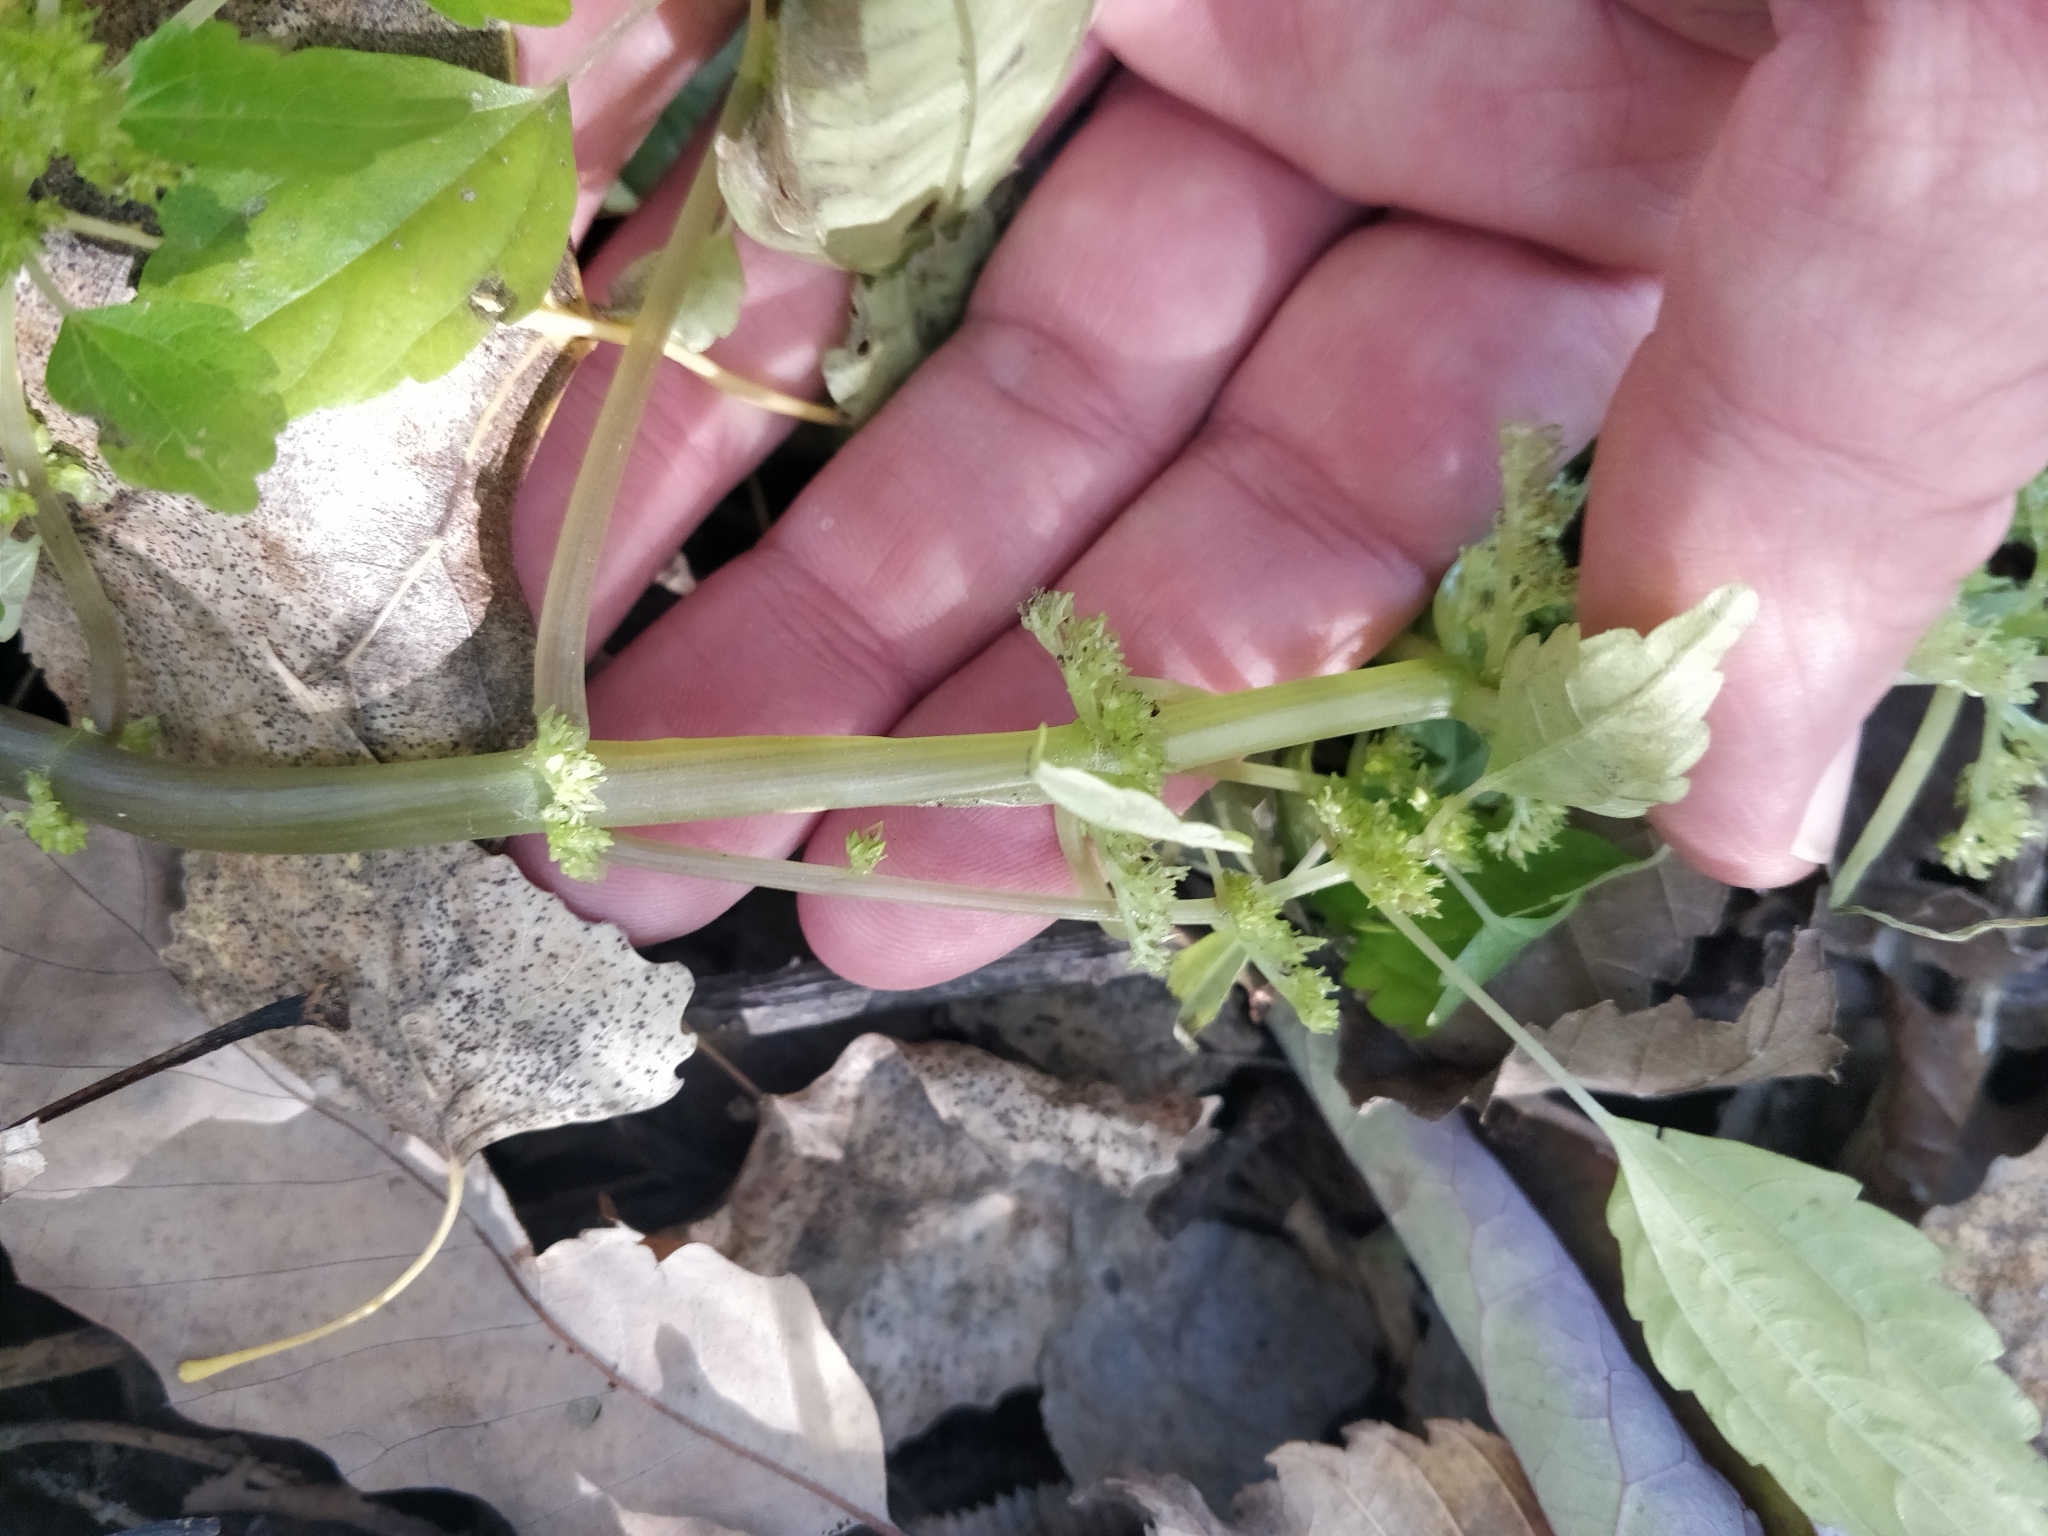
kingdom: Plantae
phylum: Tracheophyta
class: Magnoliopsida
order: Rosales
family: Urticaceae
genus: Pilea
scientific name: Pilea pumila
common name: Clearweed
